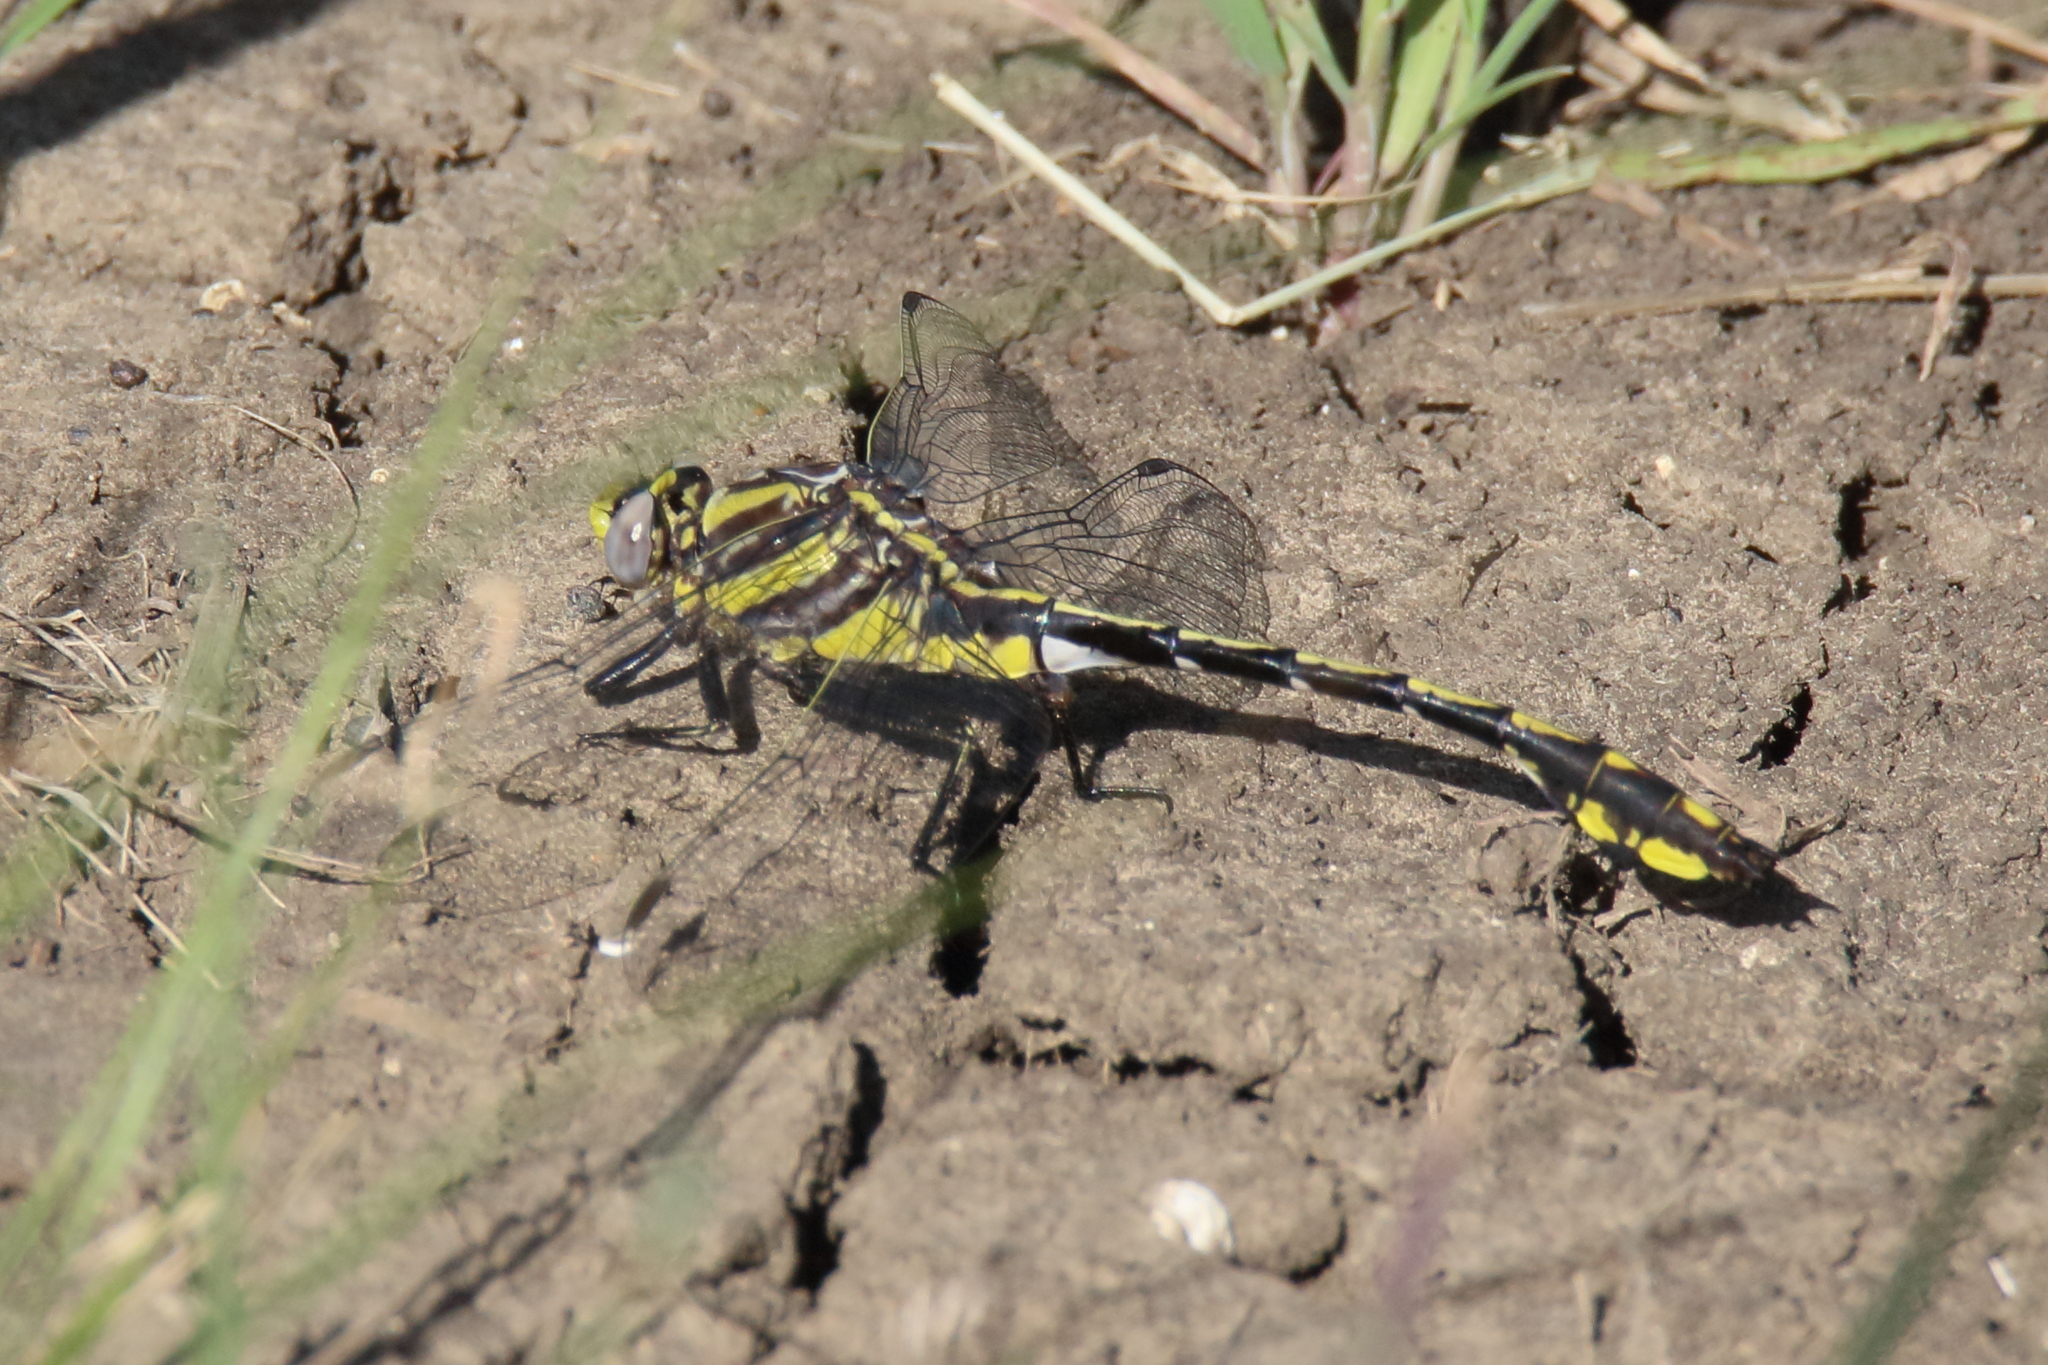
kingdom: Animalia
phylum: Arthropoda
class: Insecta
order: Odonata
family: Gomphidae
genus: Gomphurus
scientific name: Gomphurus externus
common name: Plains clubtail
